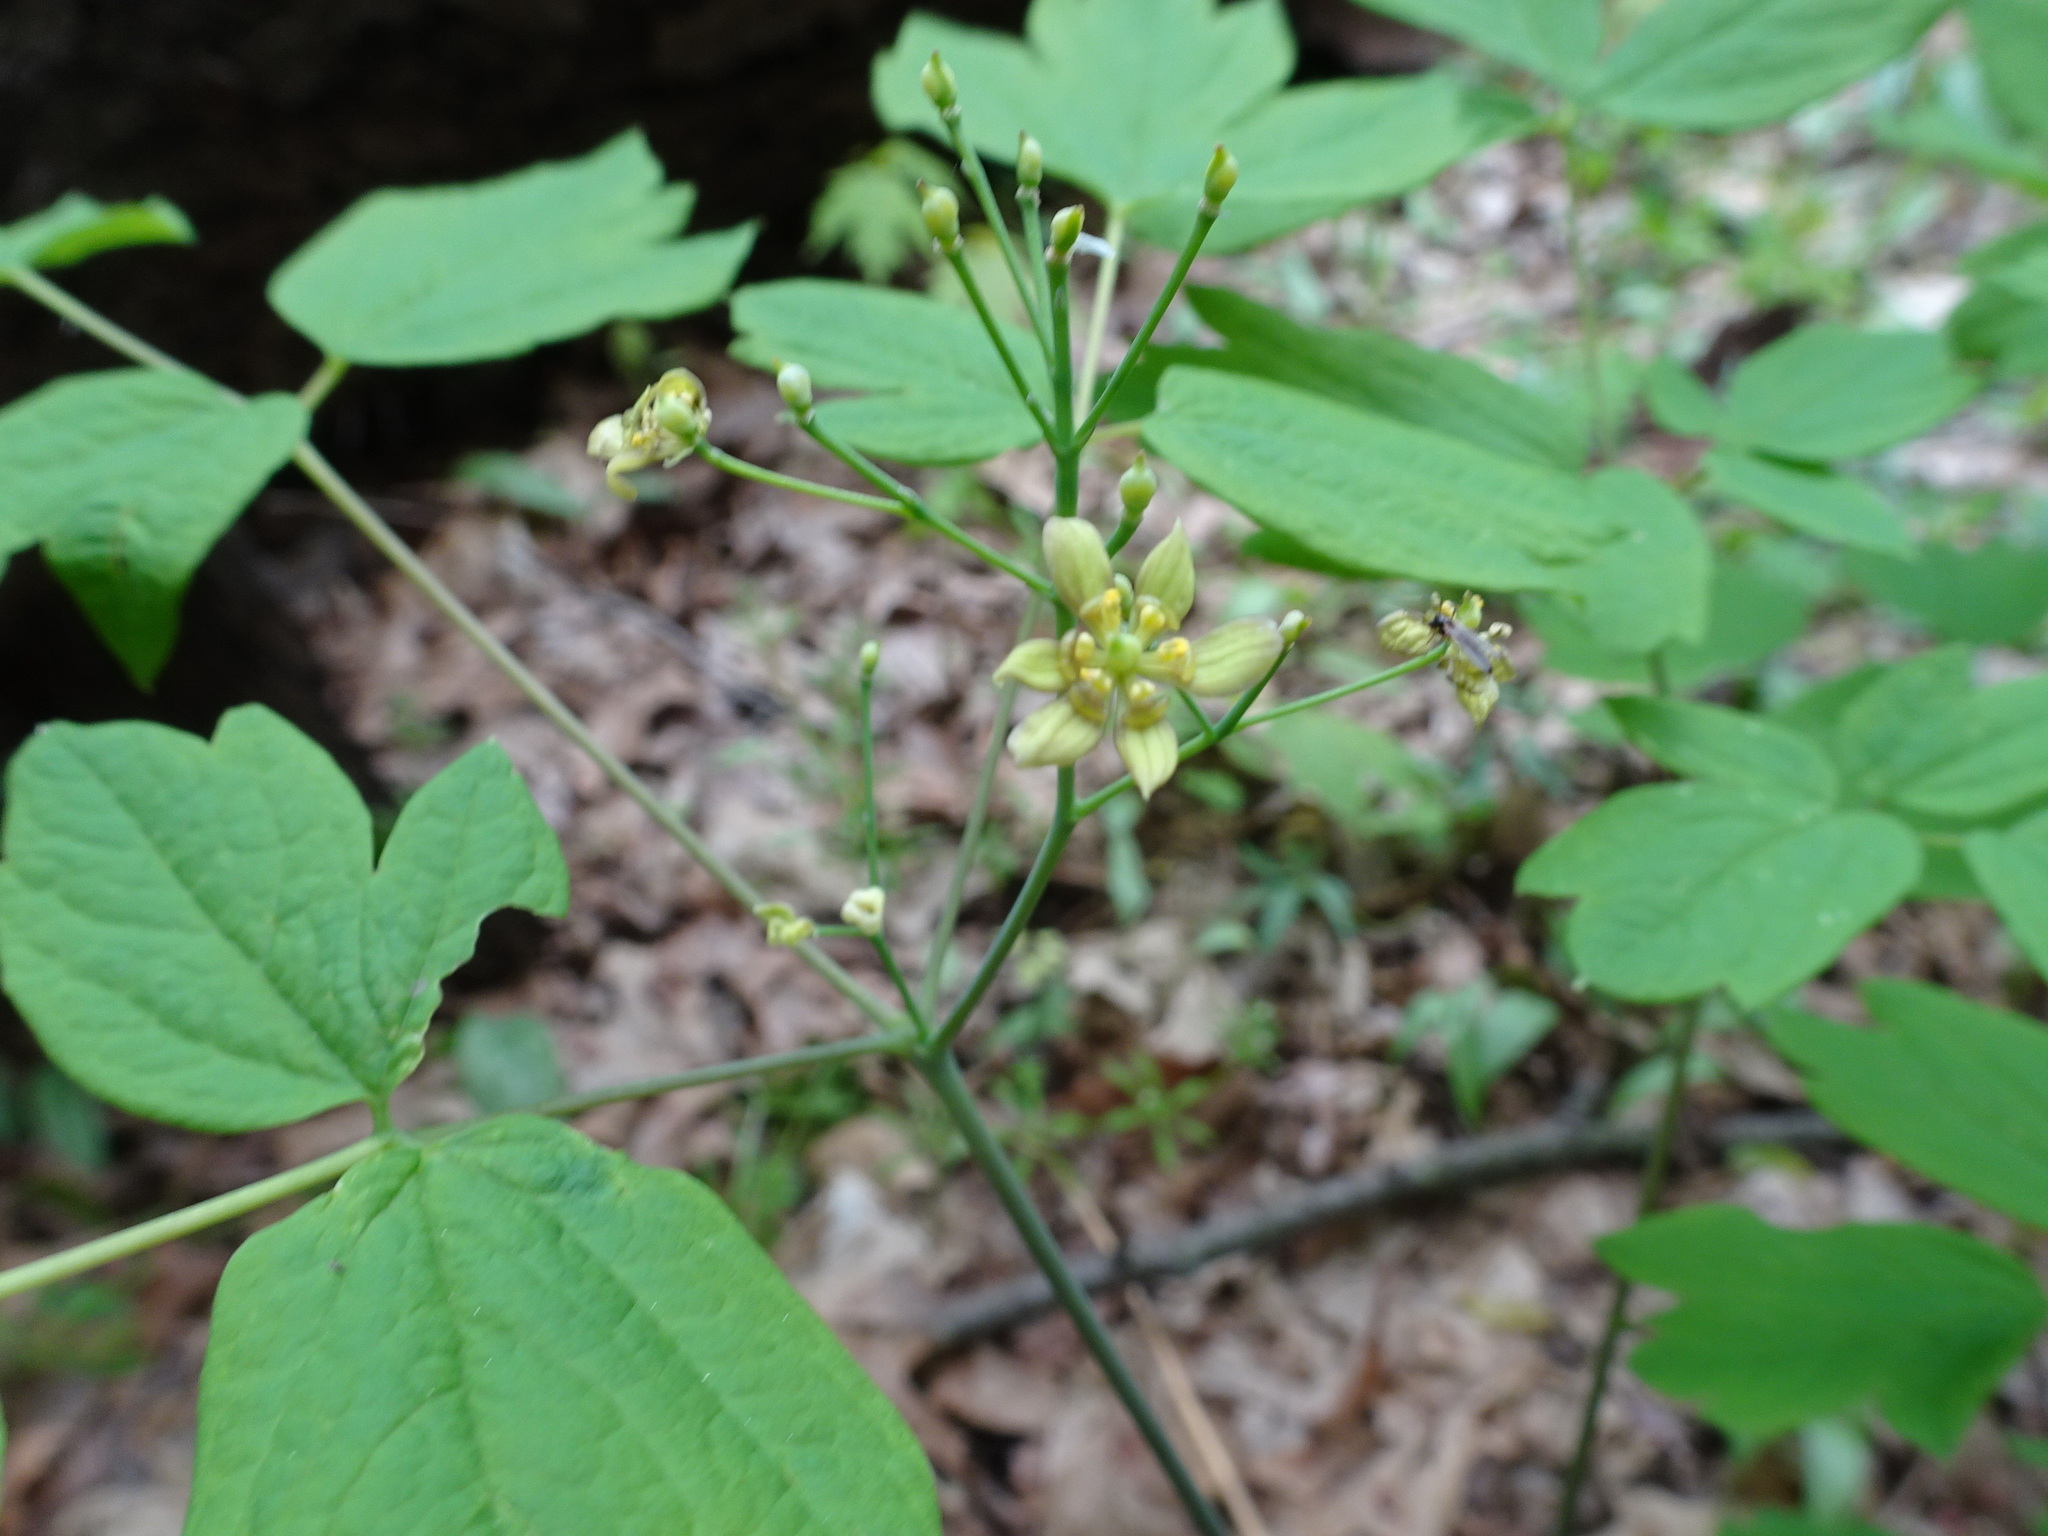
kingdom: Plantae
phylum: Tracheophyta
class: Magnoliopsida
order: Ranunculales
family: Berberidaceae
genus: Caulophyllum
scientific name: Caulophyllum thalictroides
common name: Blue cohosh
